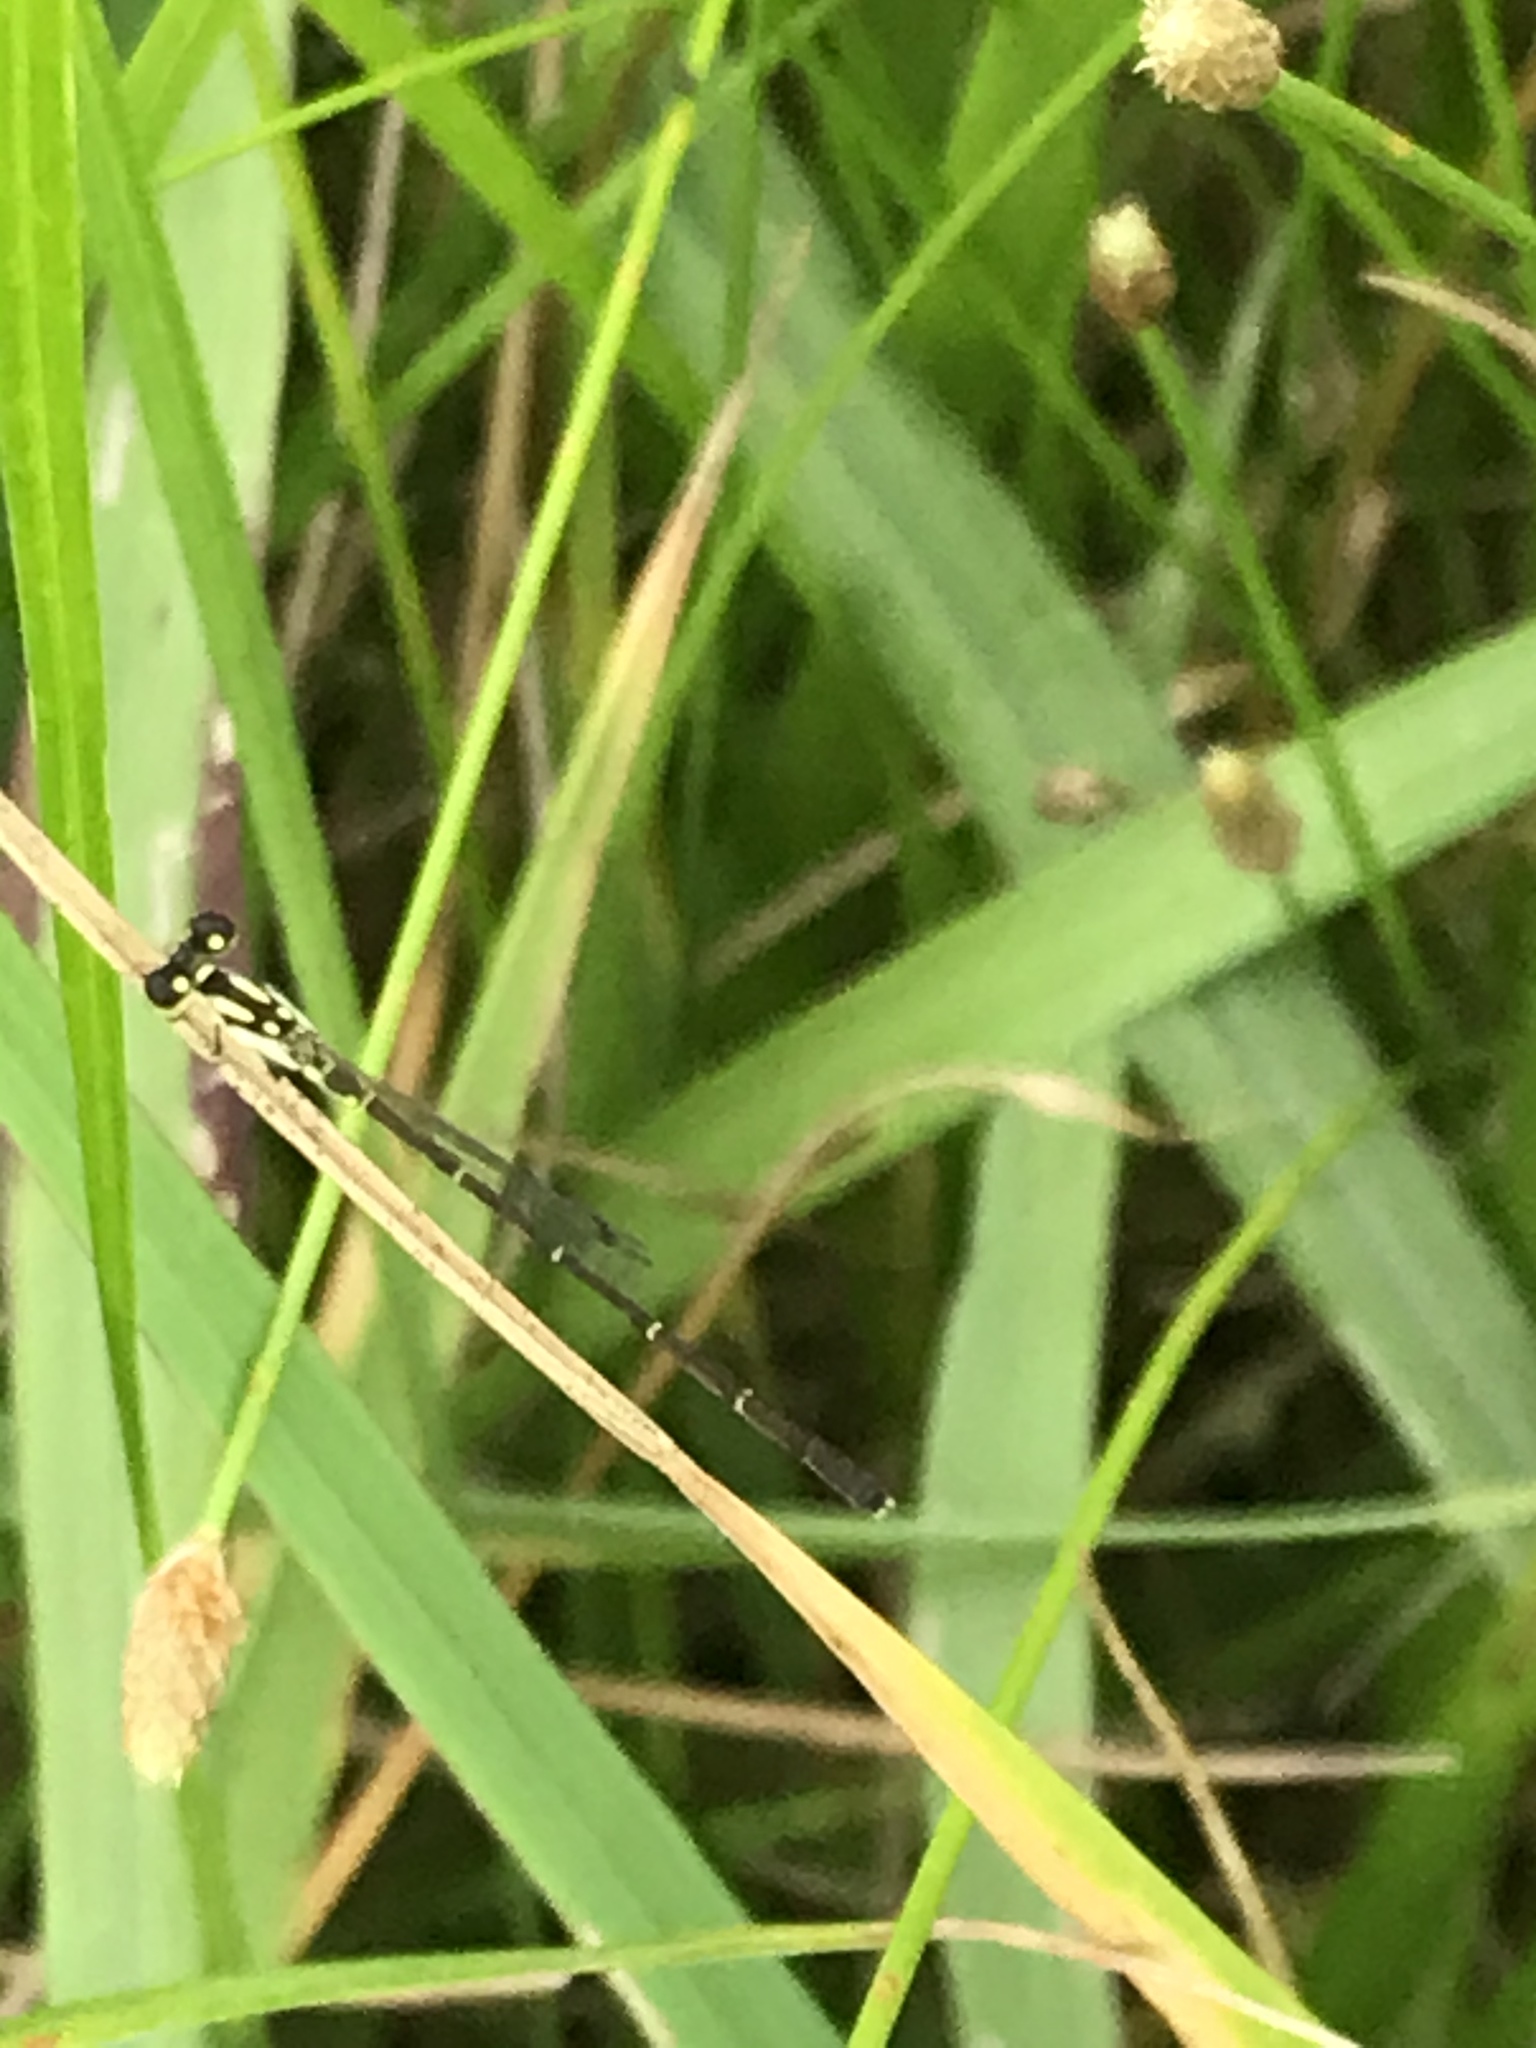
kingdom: Animalia
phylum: Arthropoda
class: Insecta
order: Odonata
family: Coenagrionidae
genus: Ischnura
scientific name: Ischnura posita
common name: Fragile forktail
